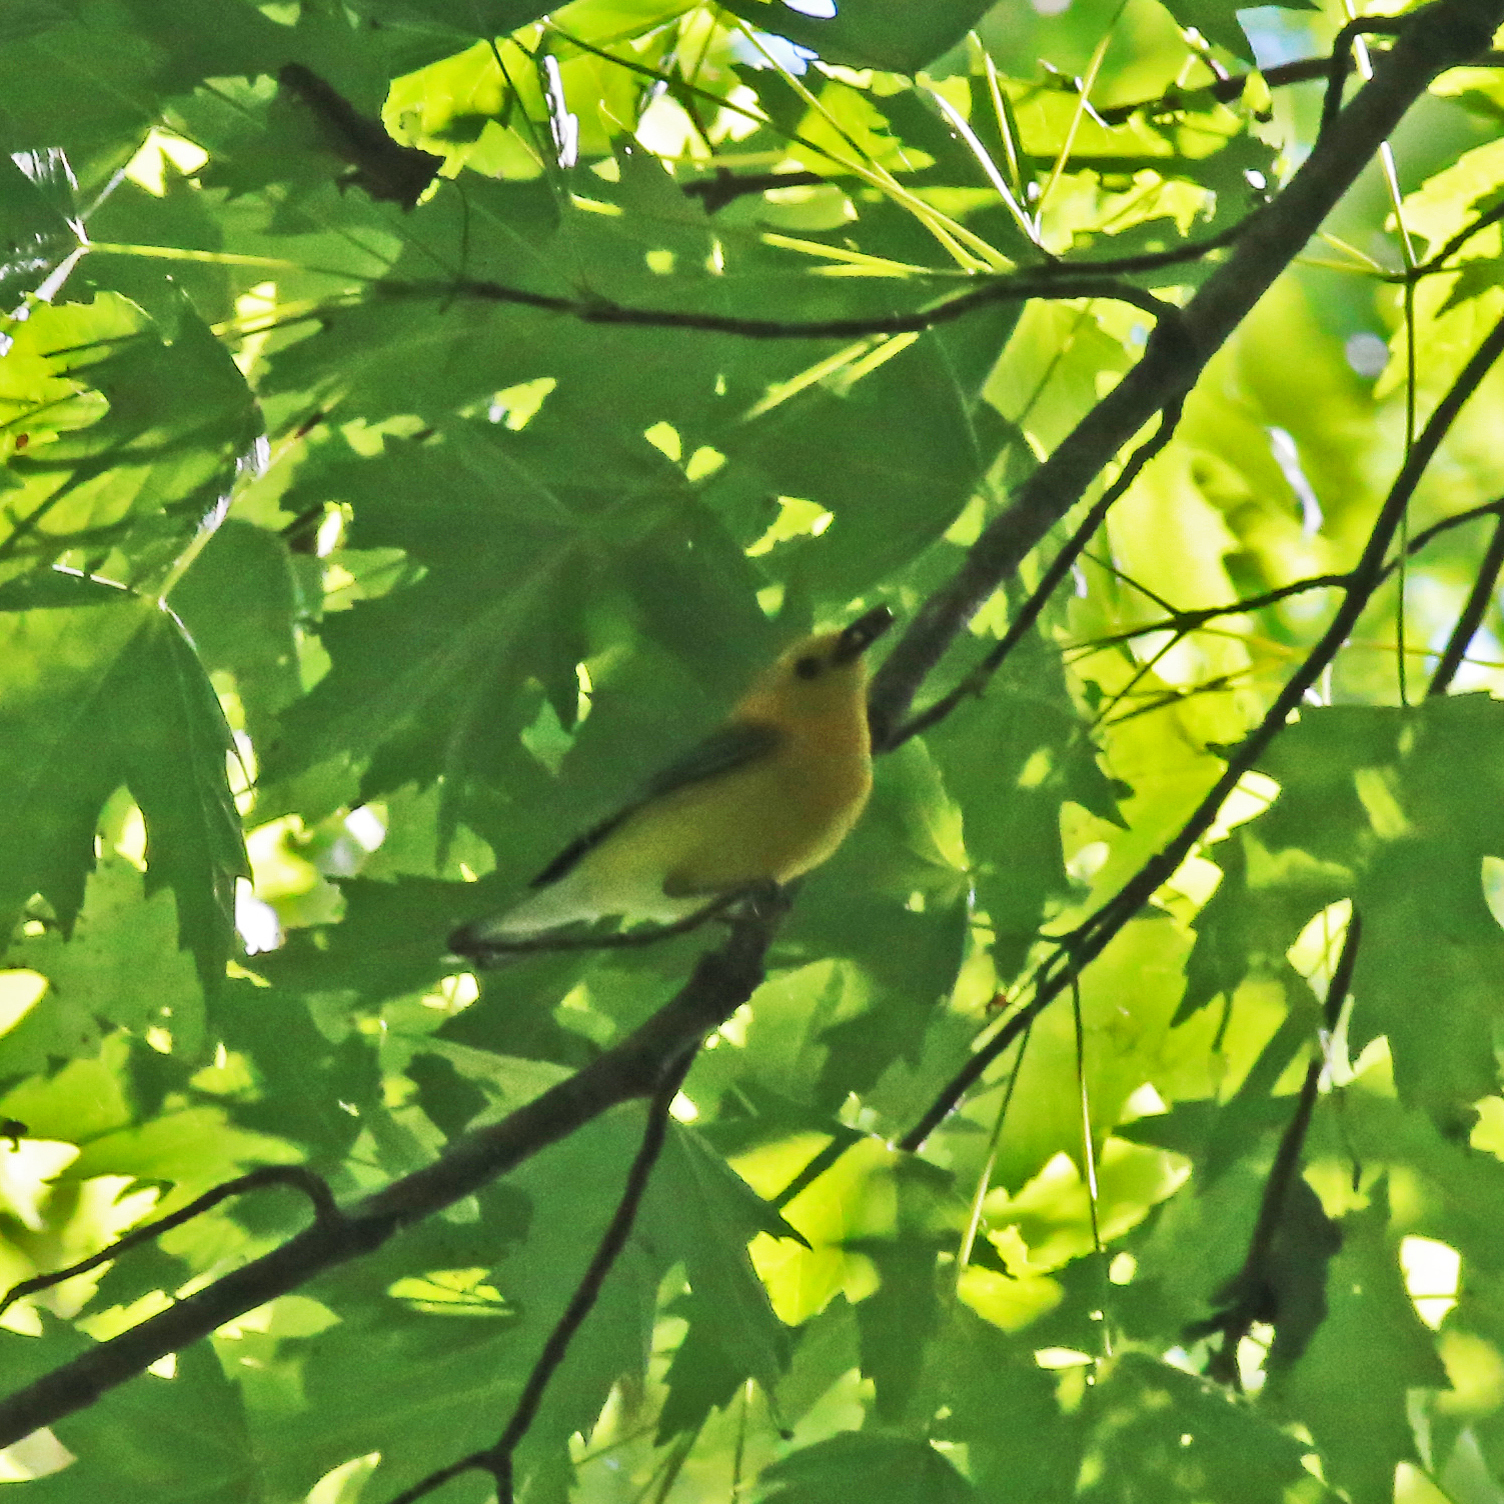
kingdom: Animalia
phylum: Chordata
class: Aves
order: Passeriformes
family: Parulidae
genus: Protonotaria
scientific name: Protonotaria citrea
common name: Prothonotary warbler
